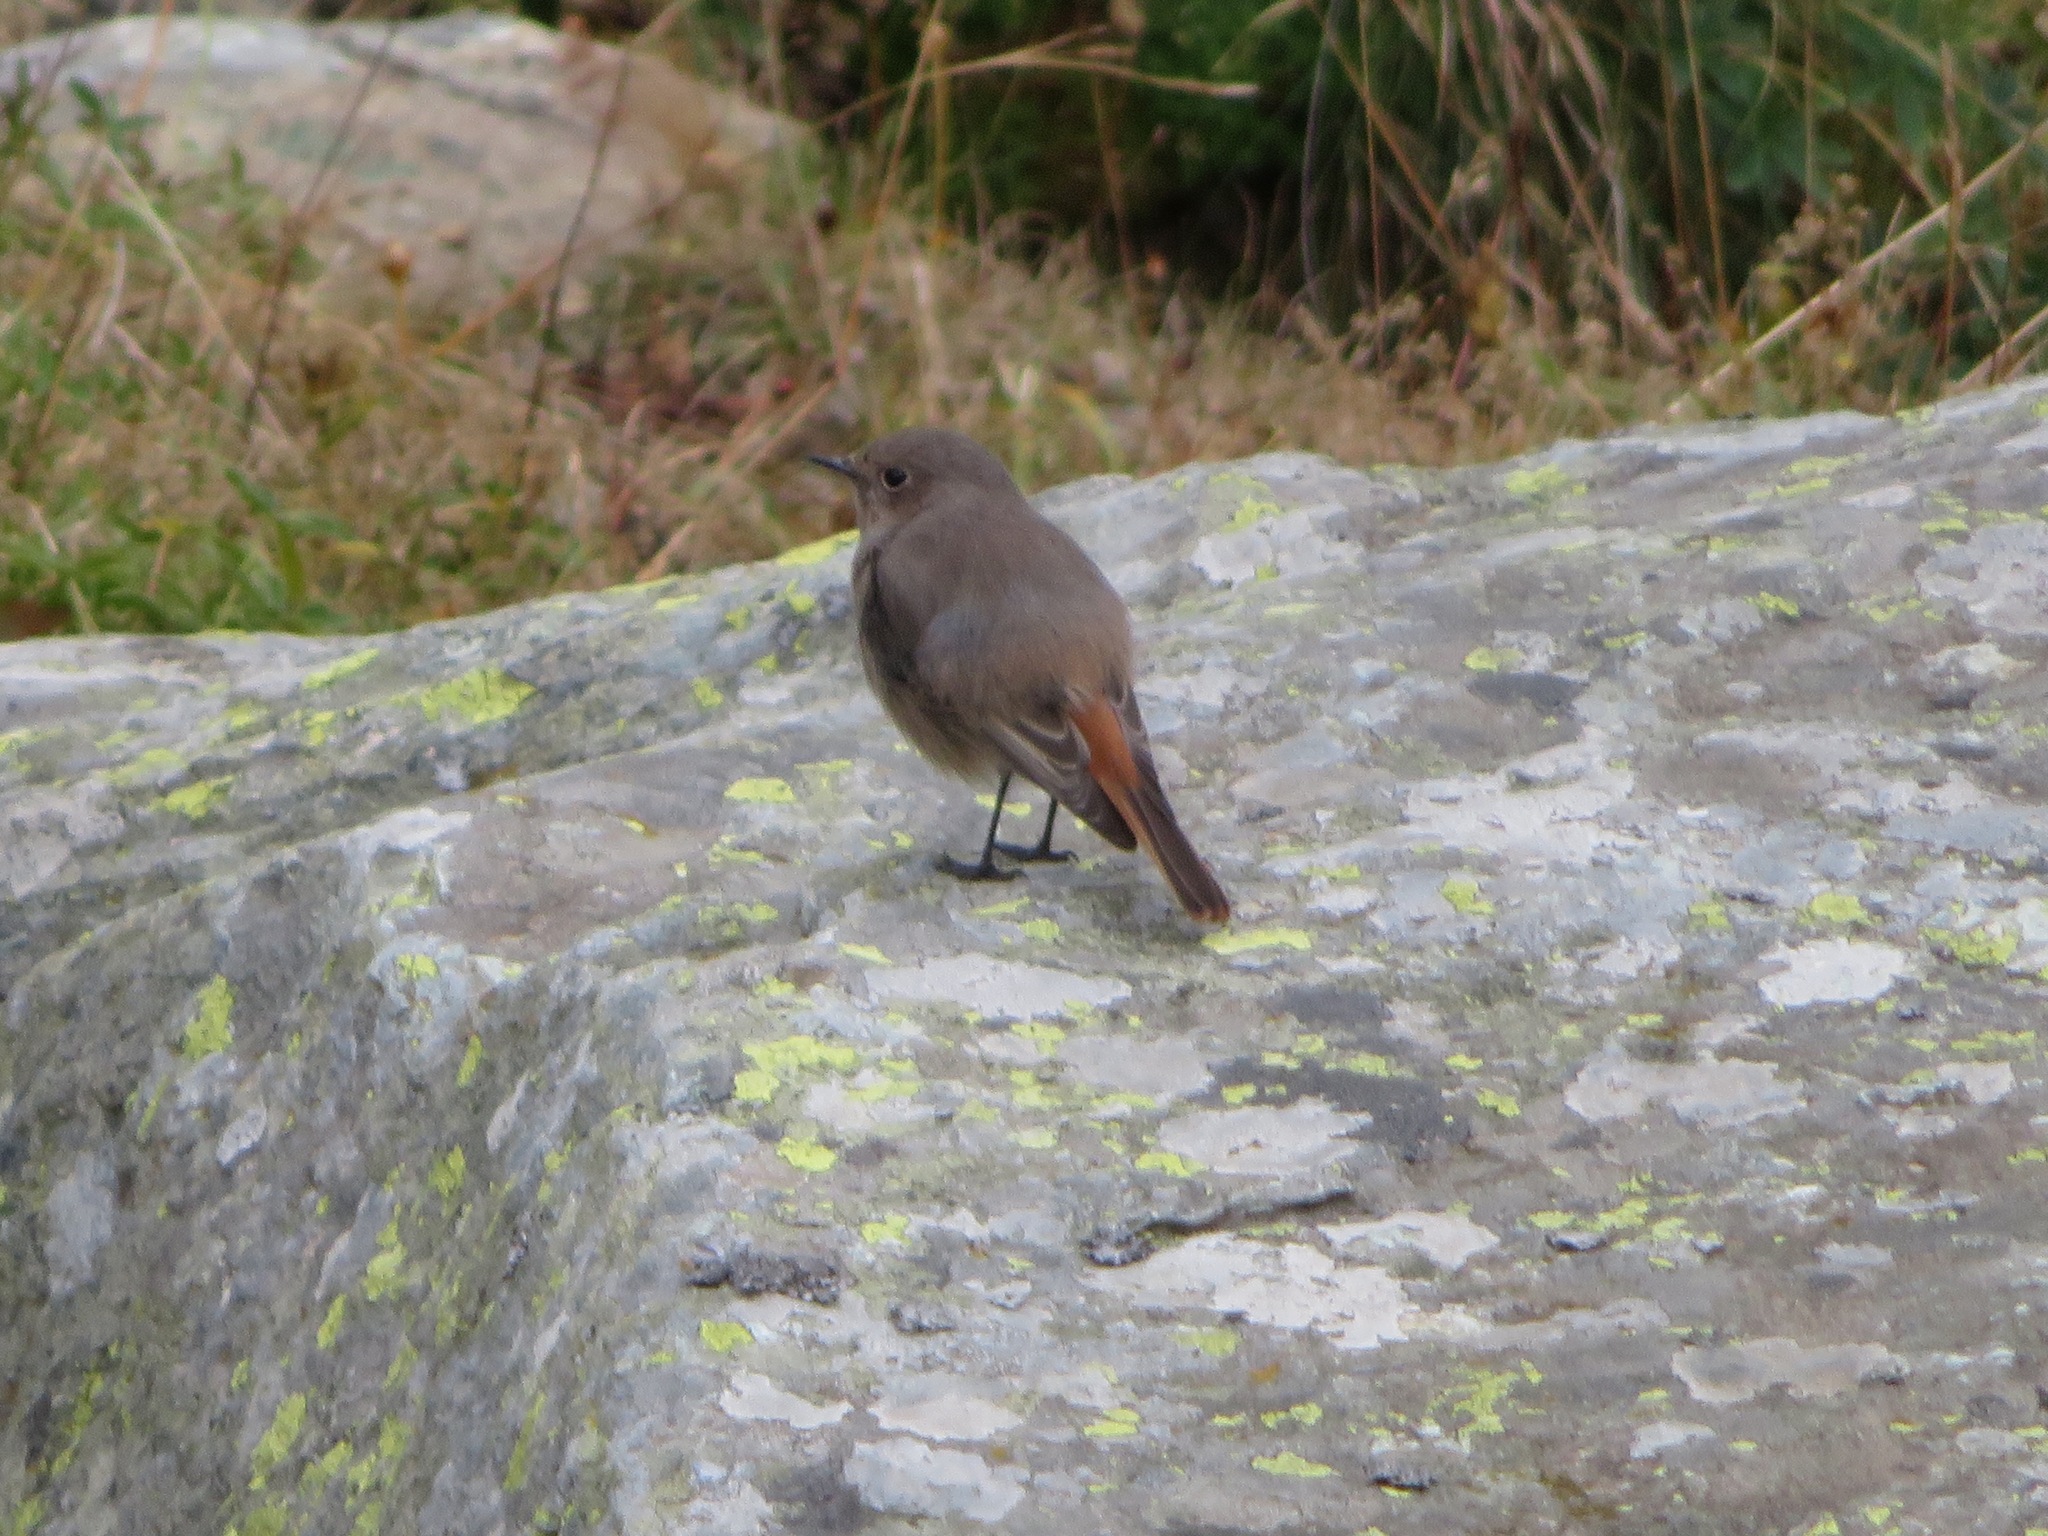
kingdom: Animalia
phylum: Chordata
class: Aves
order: Passeriformes
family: Muscicapidae
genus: Phoenicurus
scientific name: Phoenicurus ochruros
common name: Black redstart
